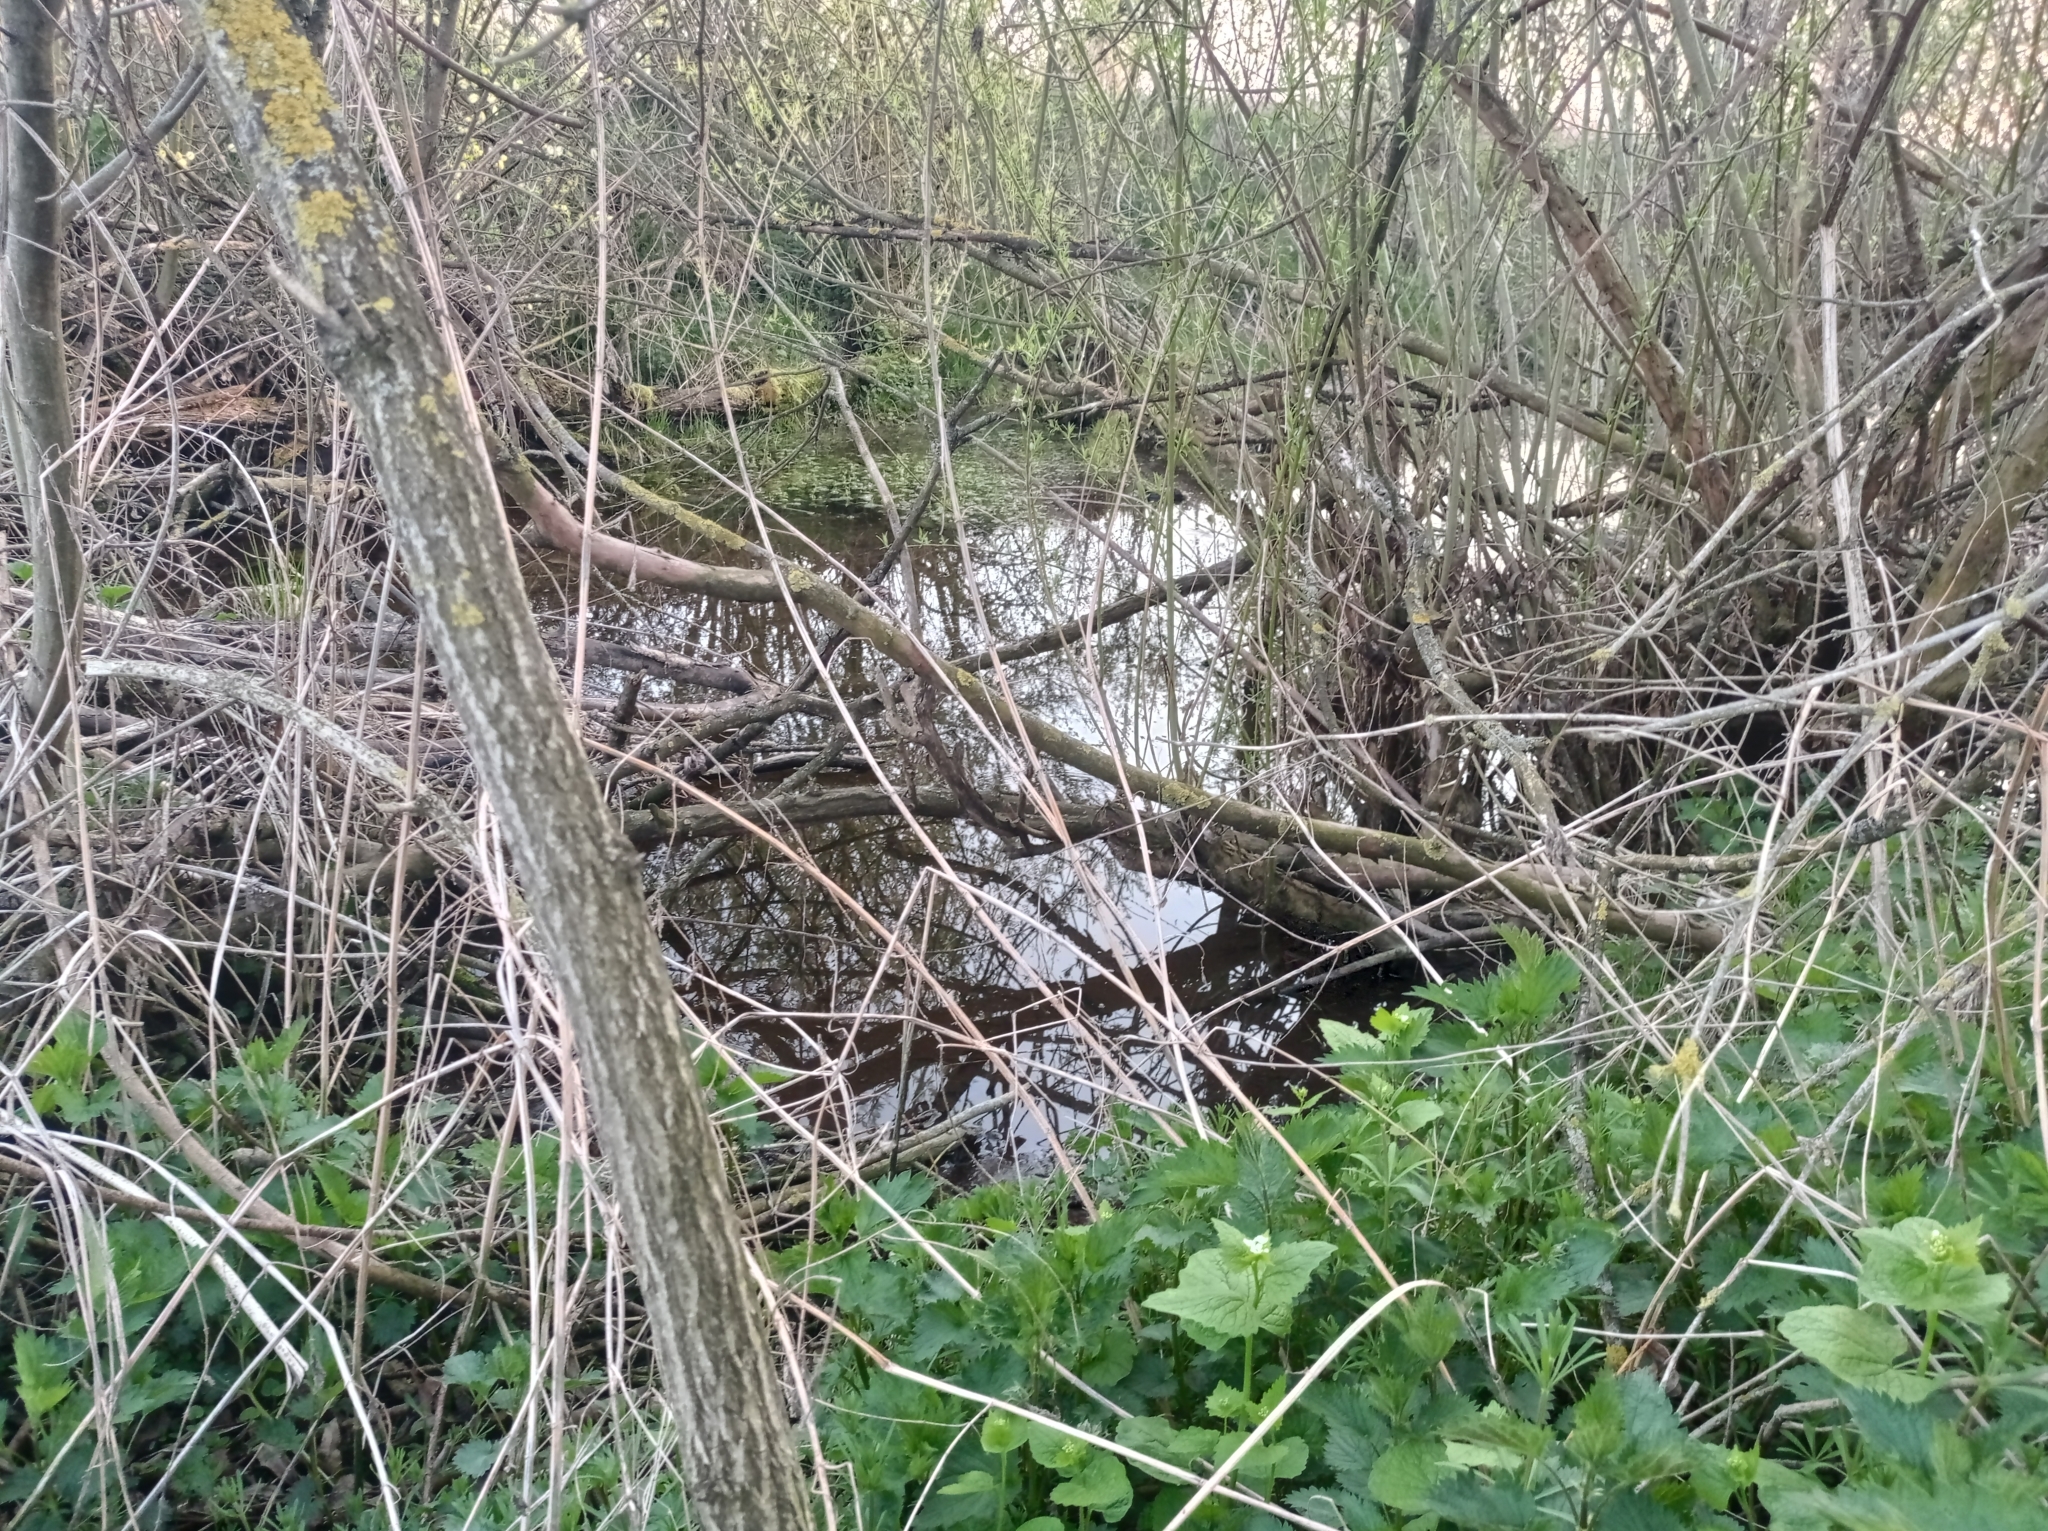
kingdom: Animalia
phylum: Chordata
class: Mammalia
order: Rodentia
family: Castoridae
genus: Castor
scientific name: Castor fiber
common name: Eurasian beaver
